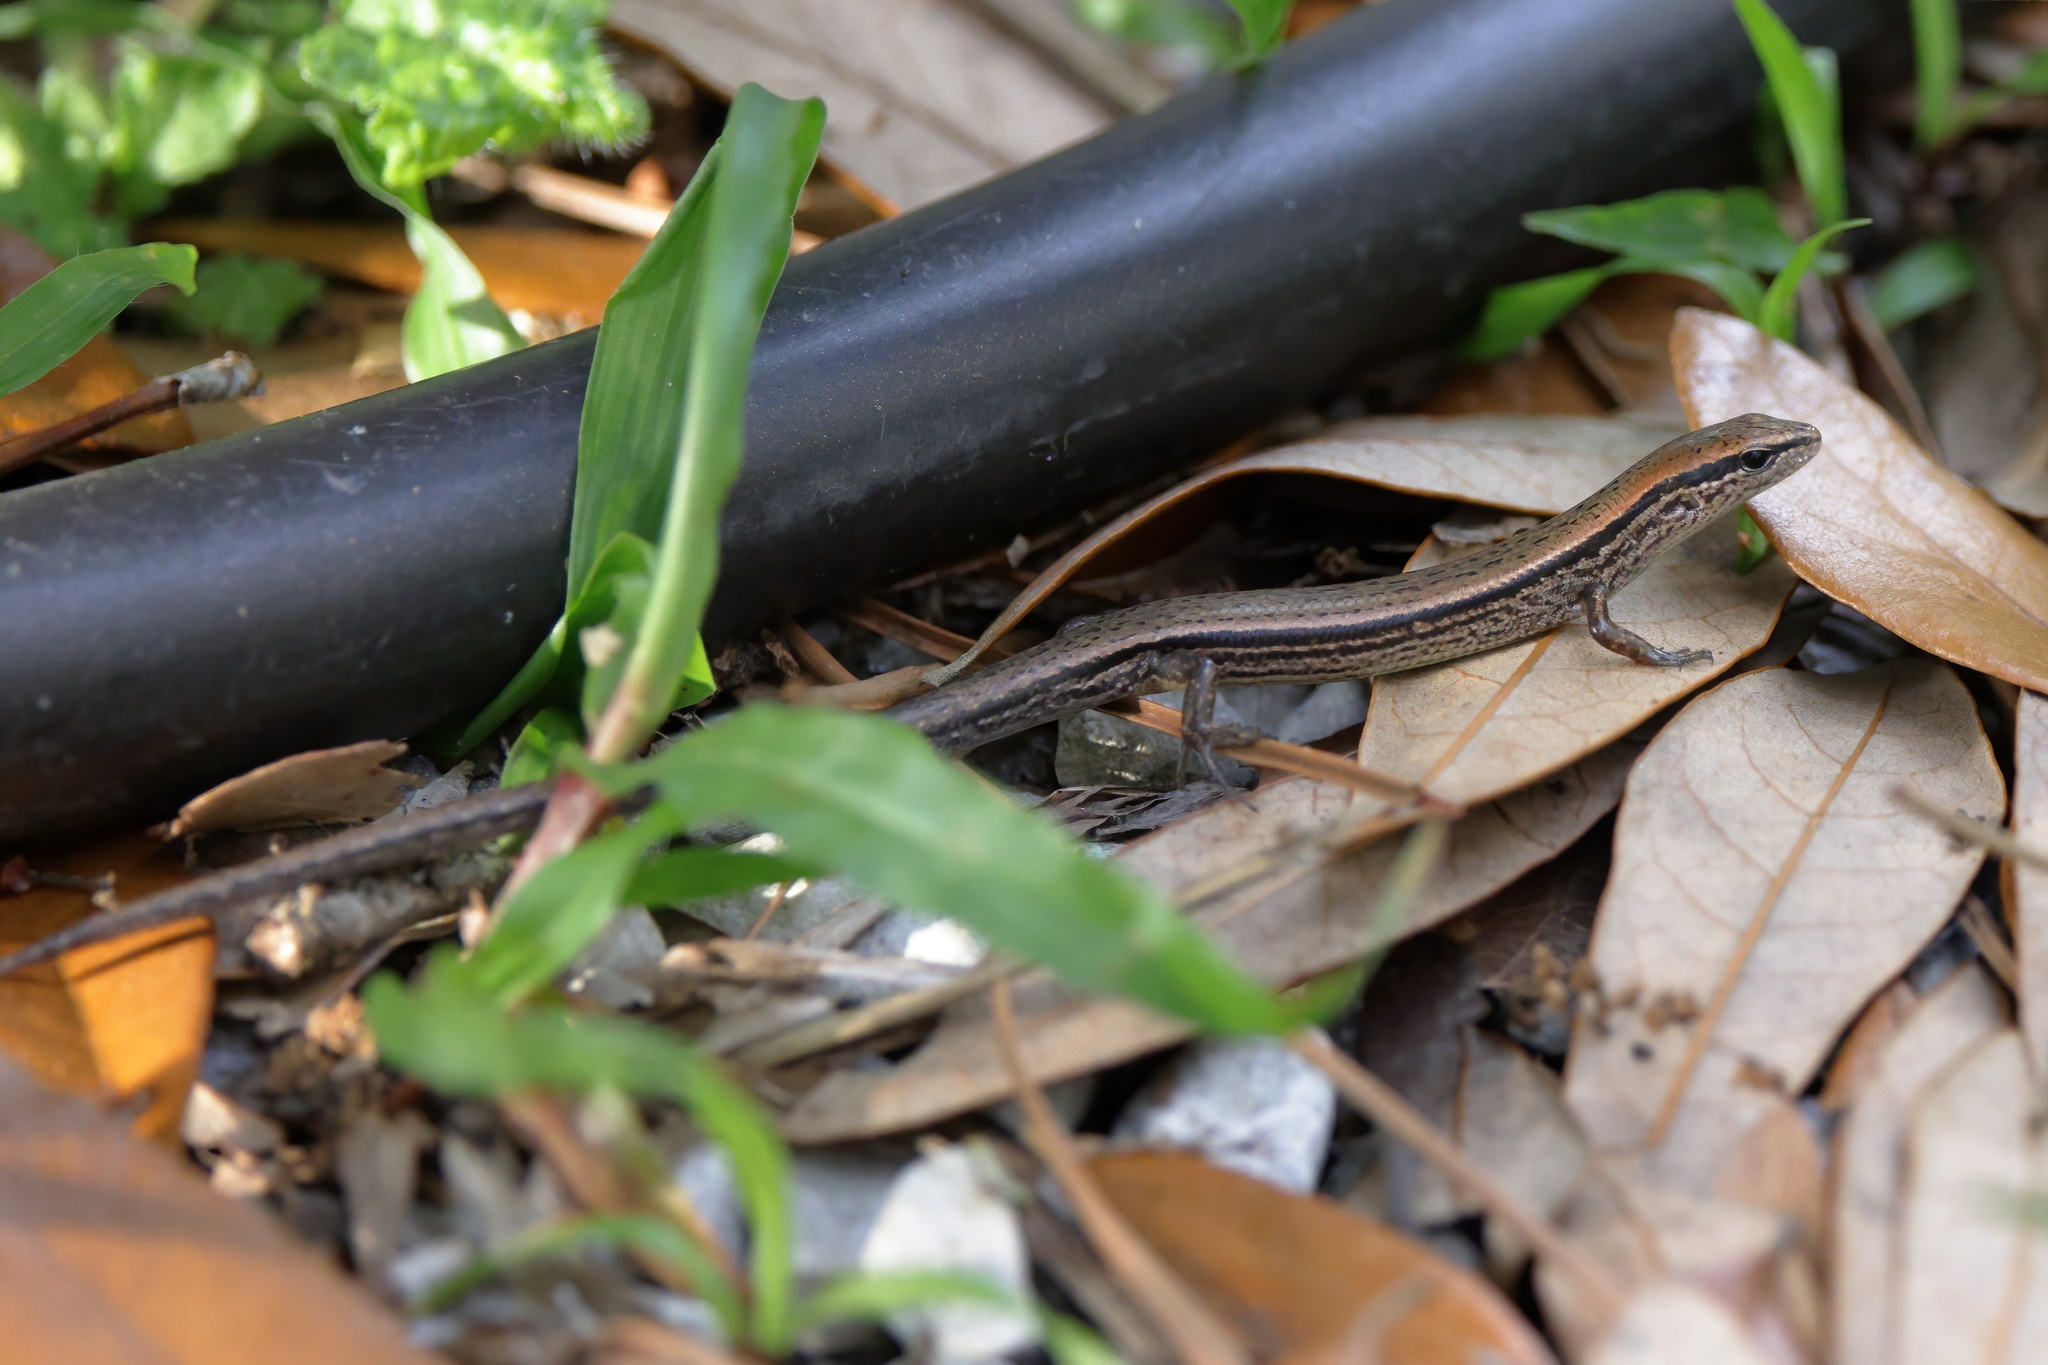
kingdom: Animalia
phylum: Chordata
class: Squamata
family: Scincidae
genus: Scincella
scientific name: Scincella lateralis
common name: Ground skink
